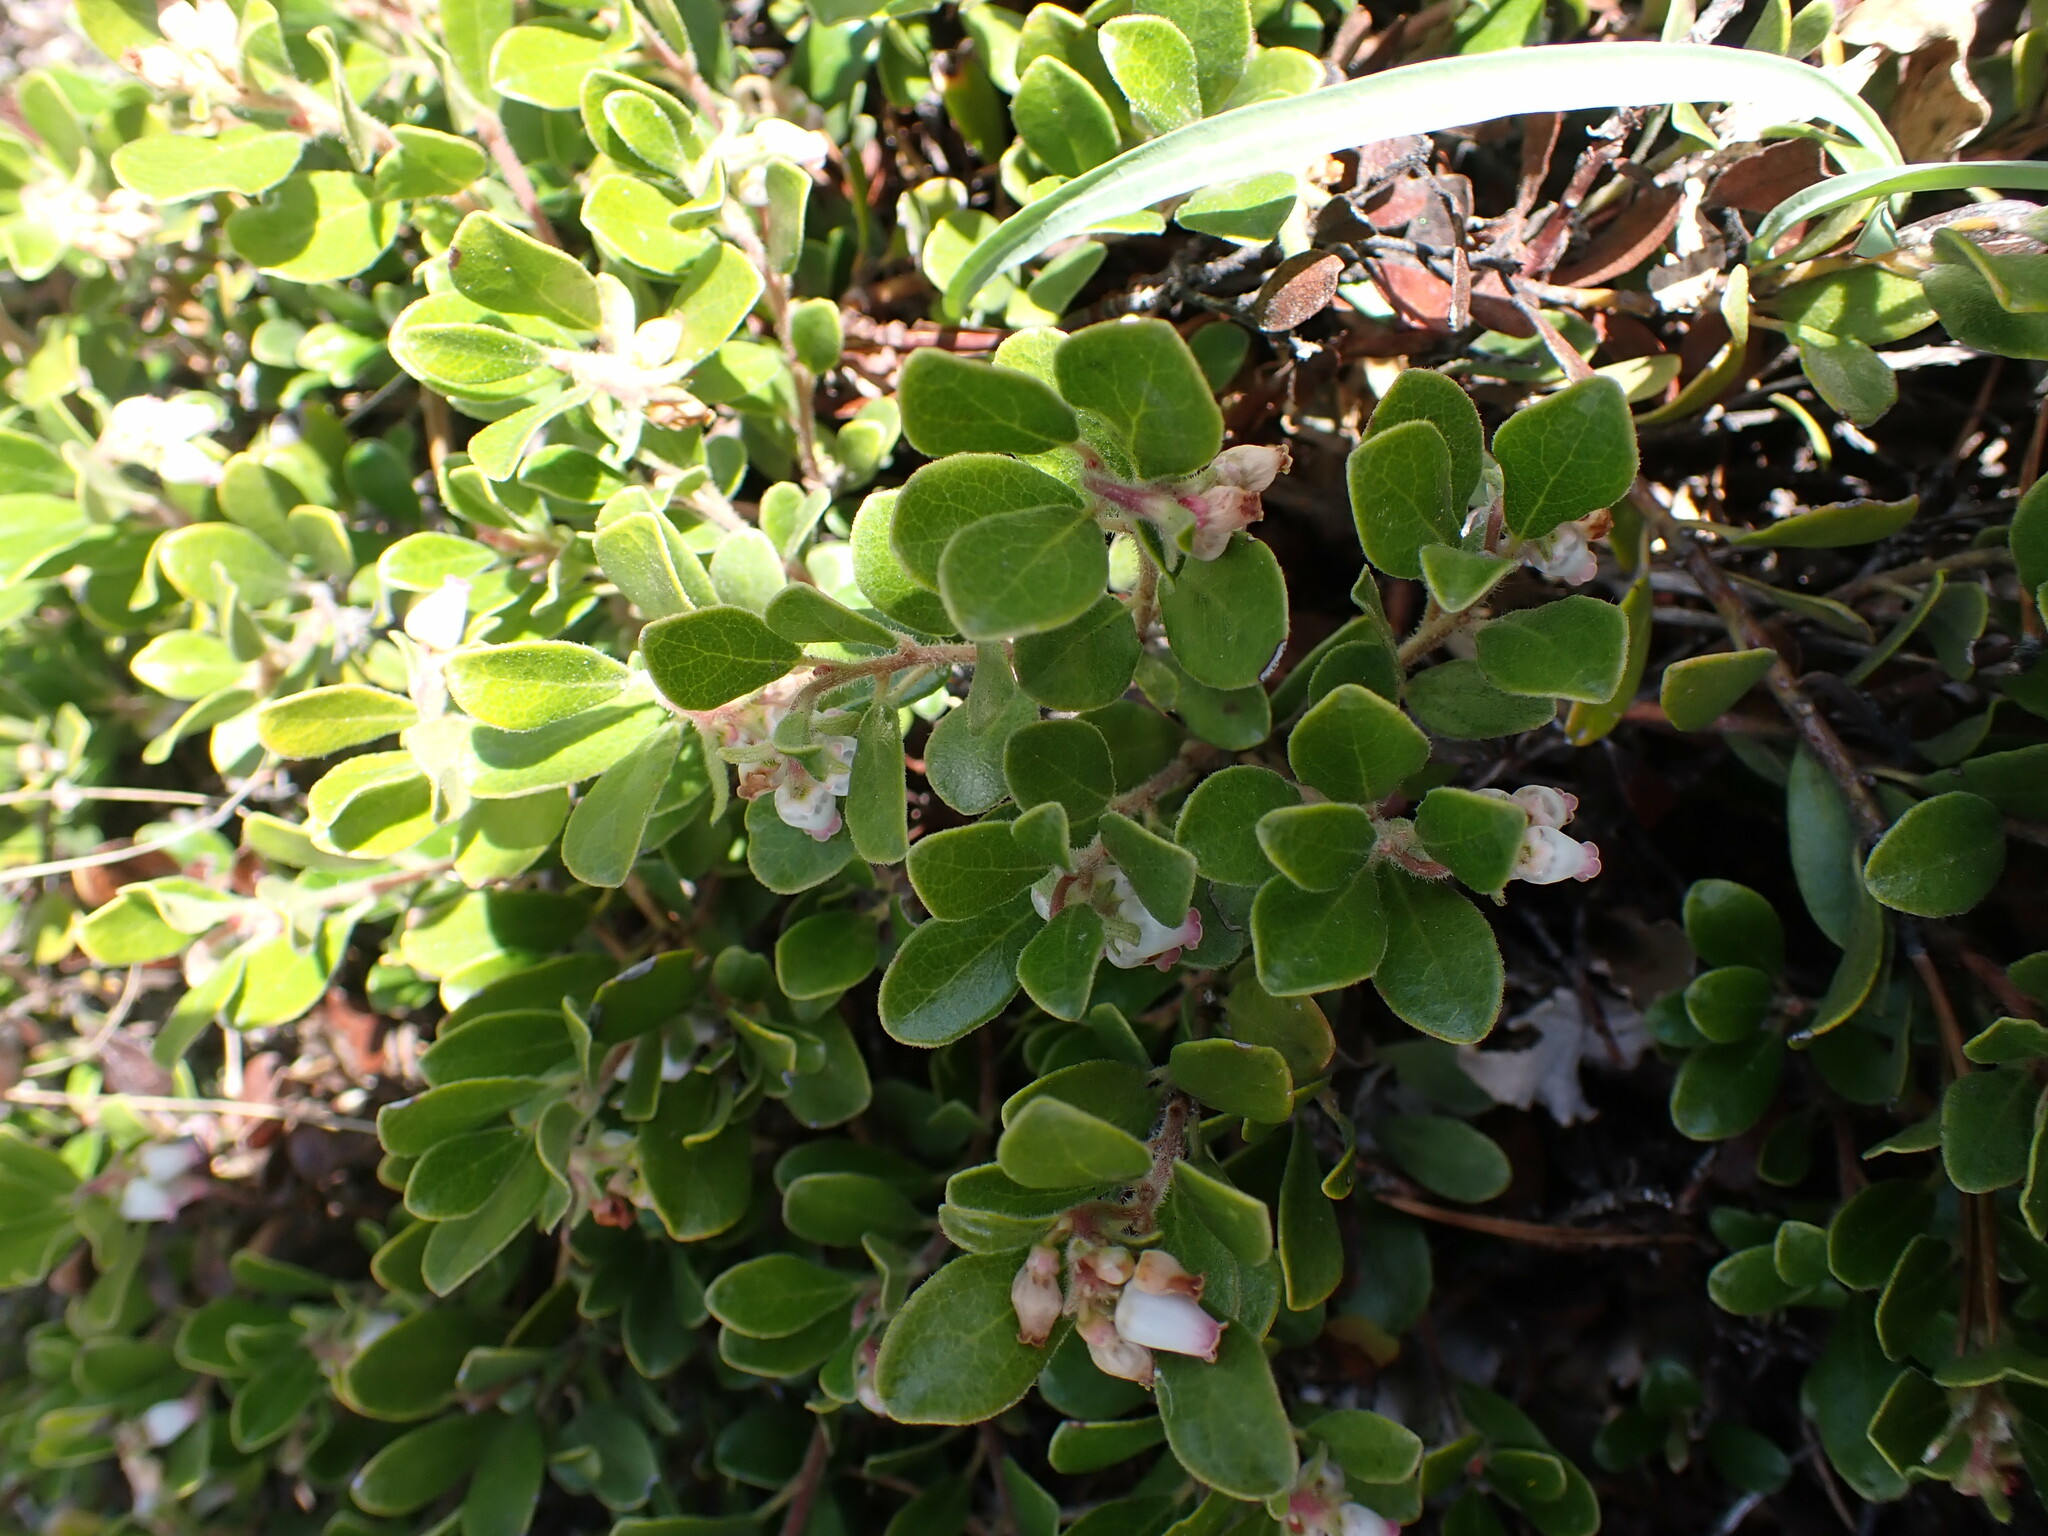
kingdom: Plantae
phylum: Tracheophyta
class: Magnoliopsida
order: Ericales
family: Ericaceae
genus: Arctostaphylos
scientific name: Arctostaphylos uva-ursi
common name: Bearberry
